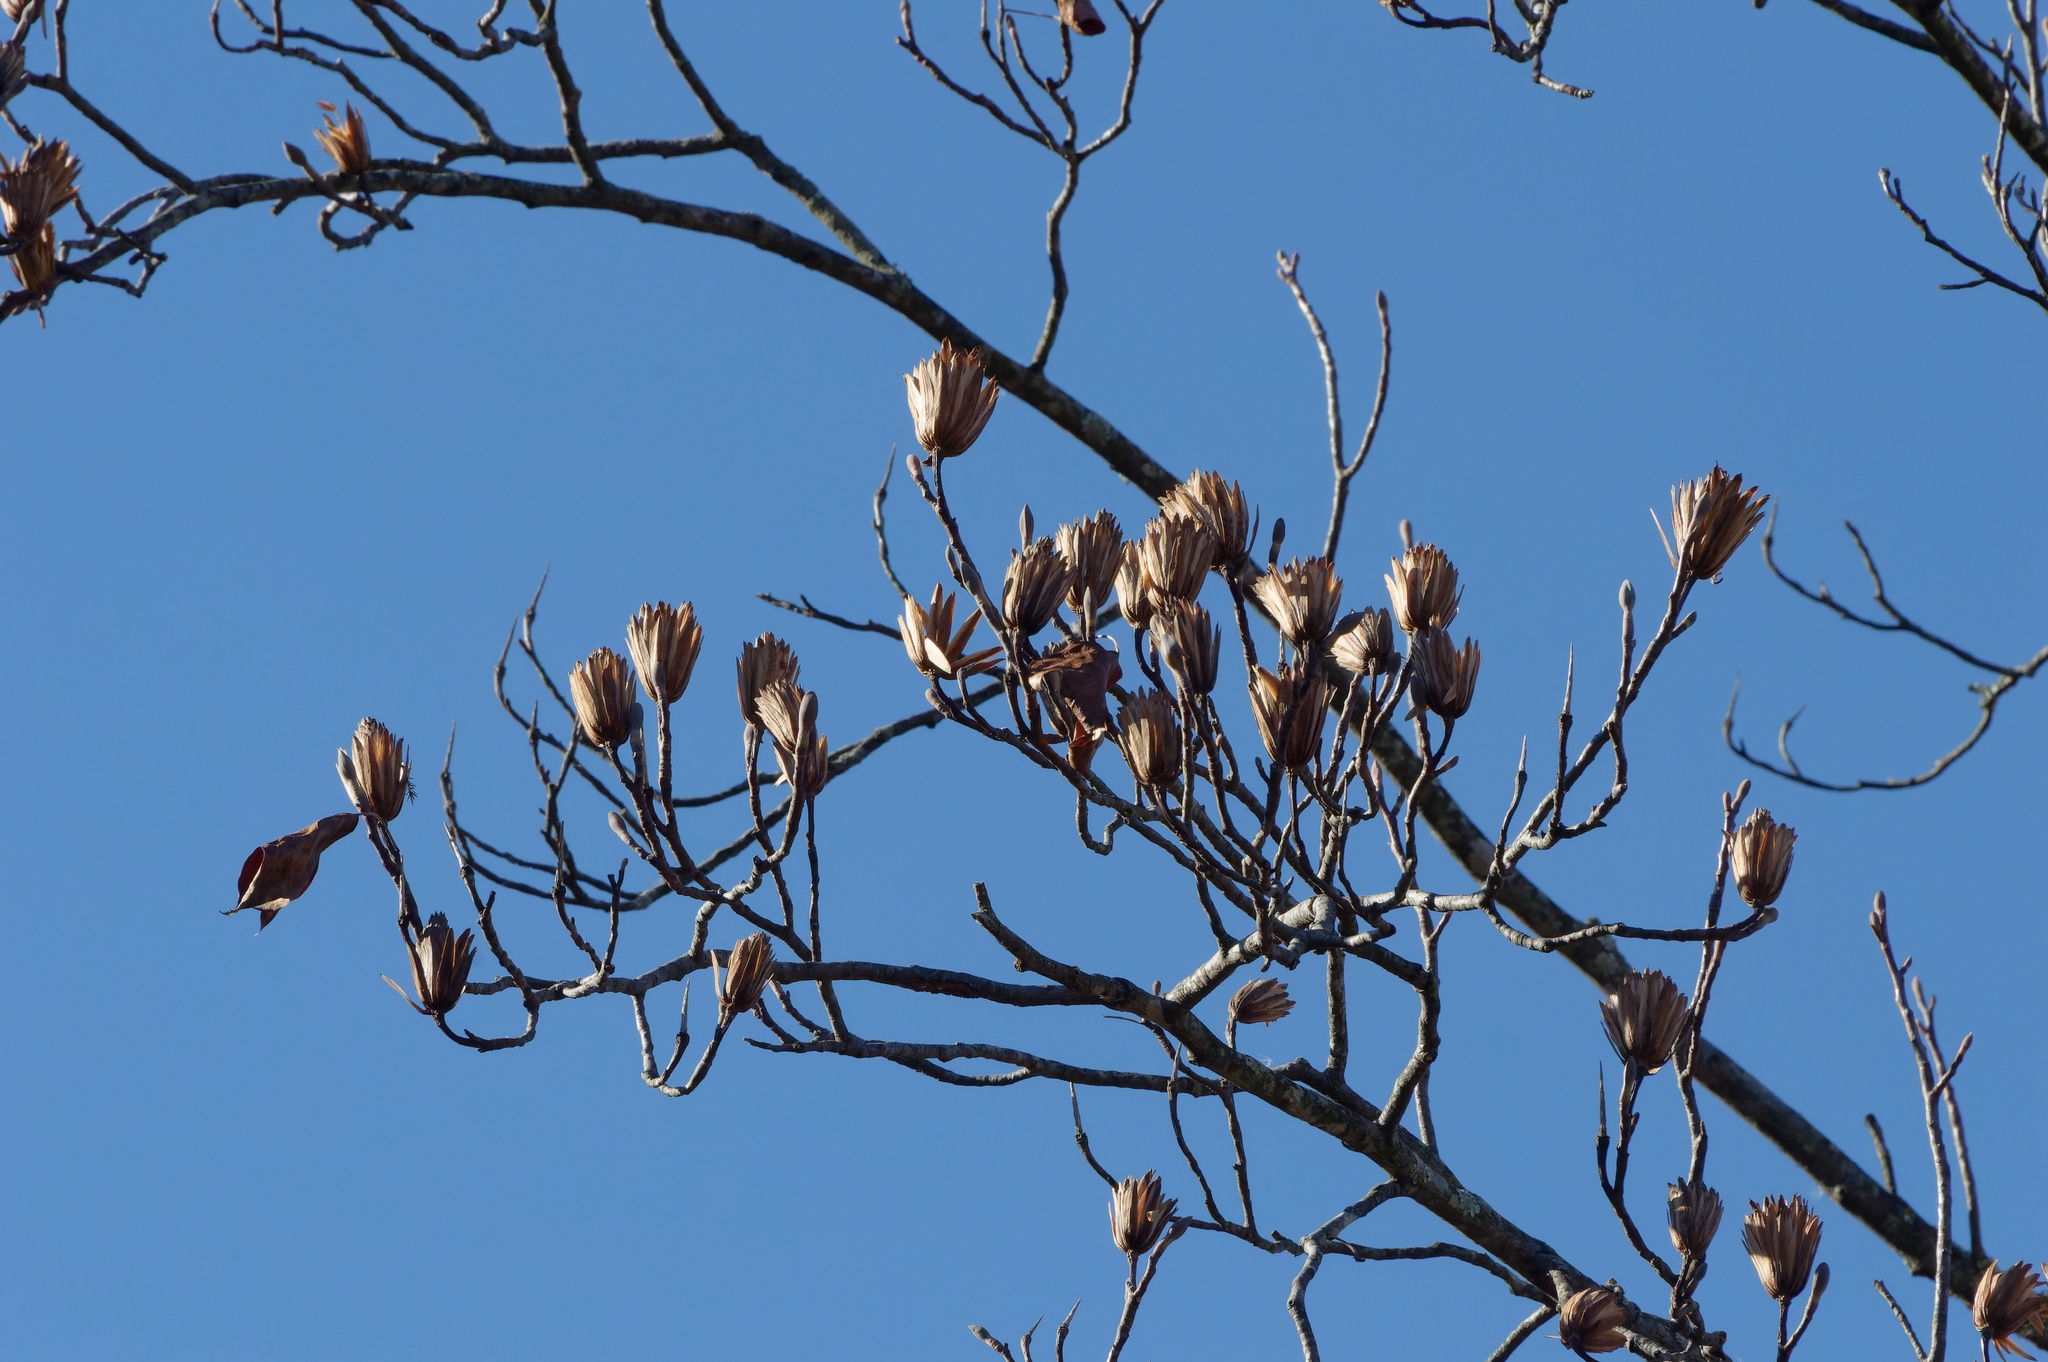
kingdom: Plantae
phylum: Tracheophyta
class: Magnoliopsida
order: Magnoliales
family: Magnoliaceae
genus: Liriodendron
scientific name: Liriodendron tulipifera
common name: Tulip tree
